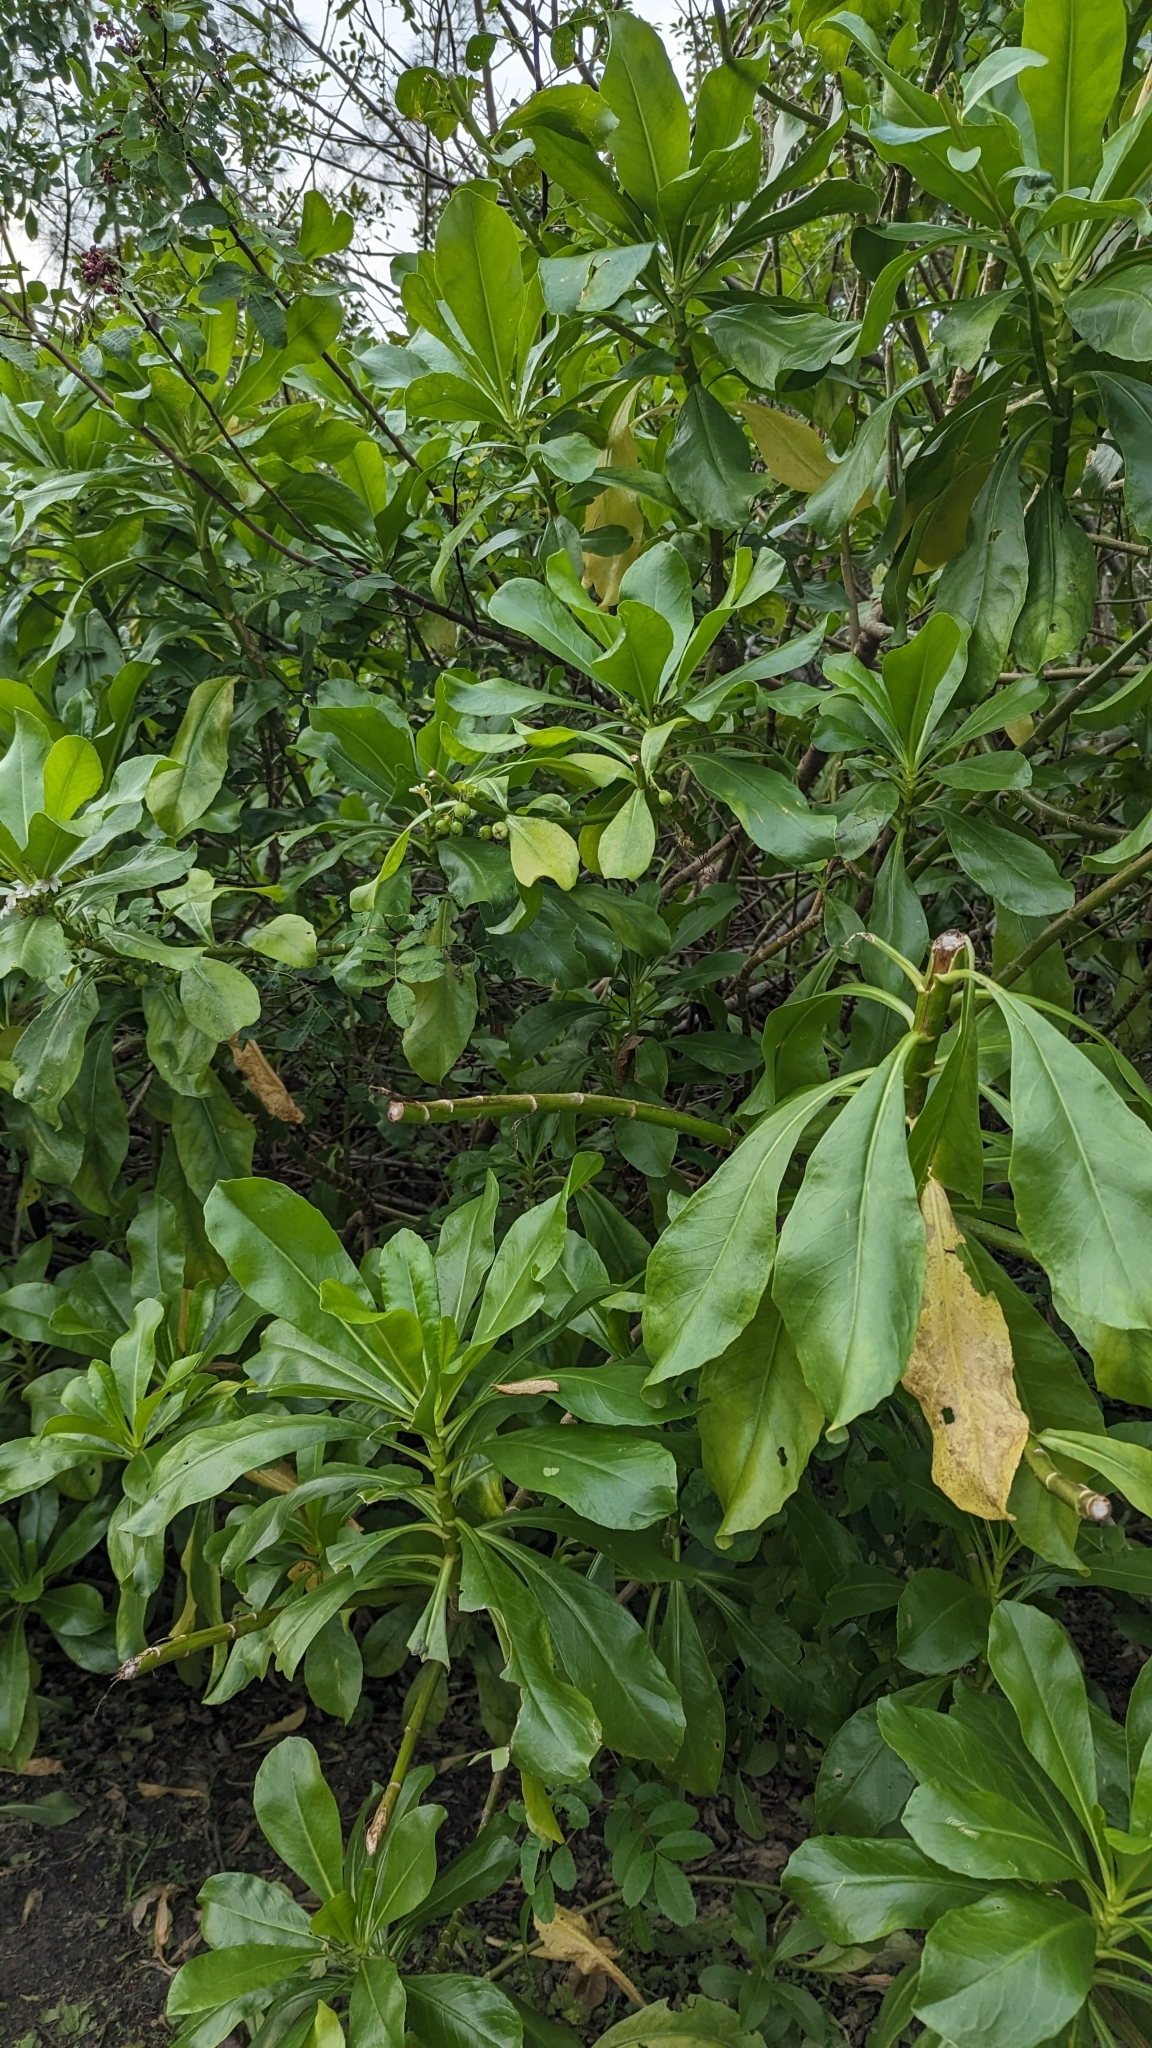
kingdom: Plantae
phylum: Tracheophyta
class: Magnoliopsida
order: Asterales
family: Goodeniaceae
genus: Scaevola
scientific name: Scaevola taccada
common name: Sea lettucetree
